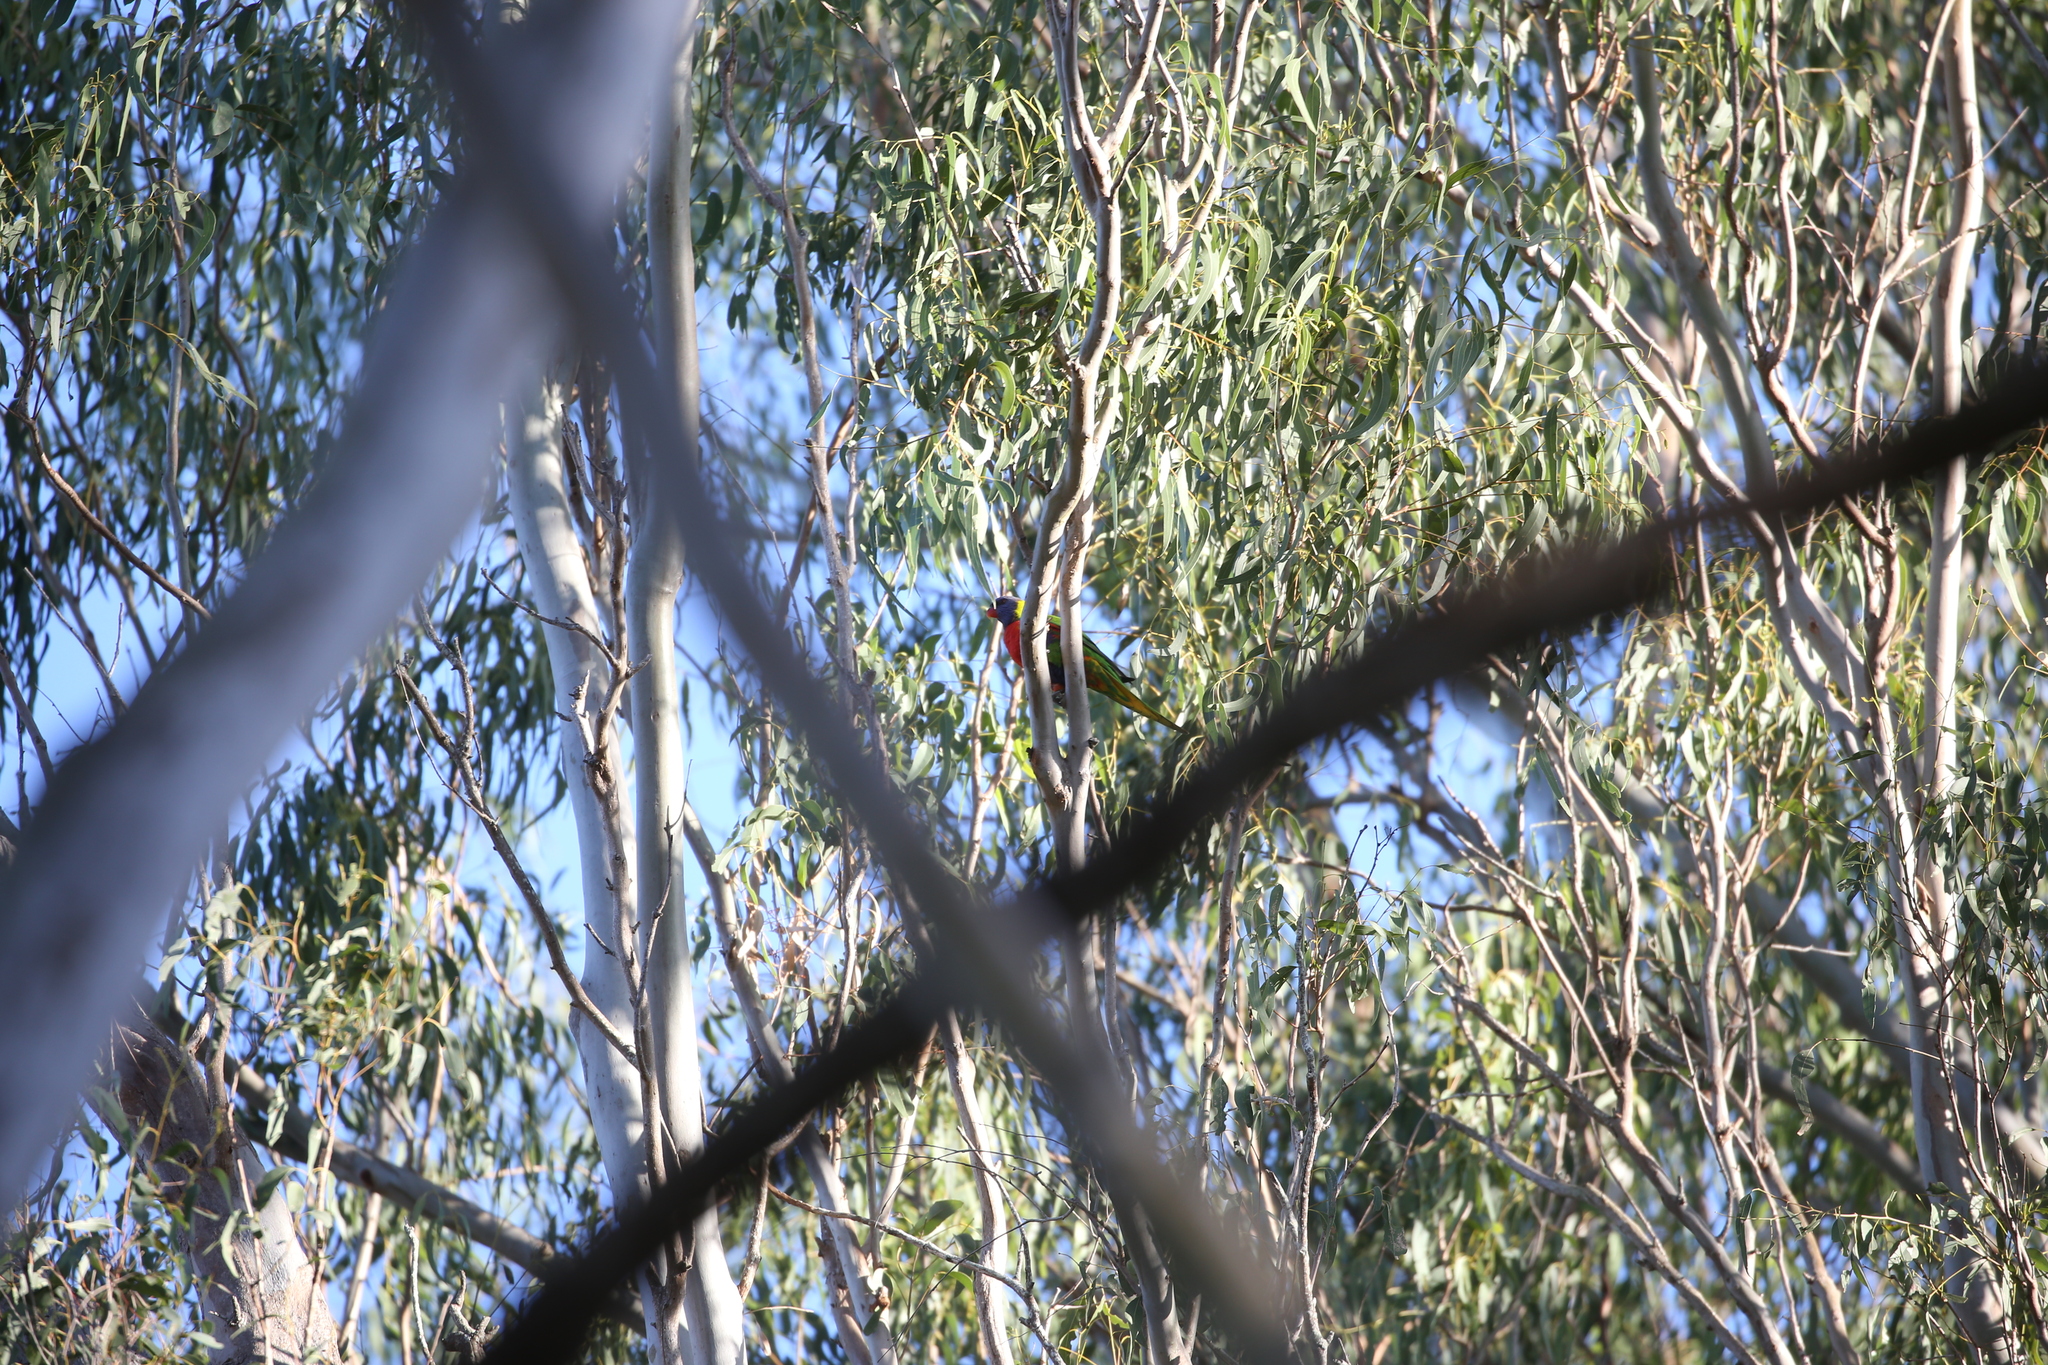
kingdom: Animalia
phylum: Chordata
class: Aves
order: Psittaciformes
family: Psittacidae
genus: Trichoglossus
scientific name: Trichoglossus haematodus
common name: Coconut lorikeet
